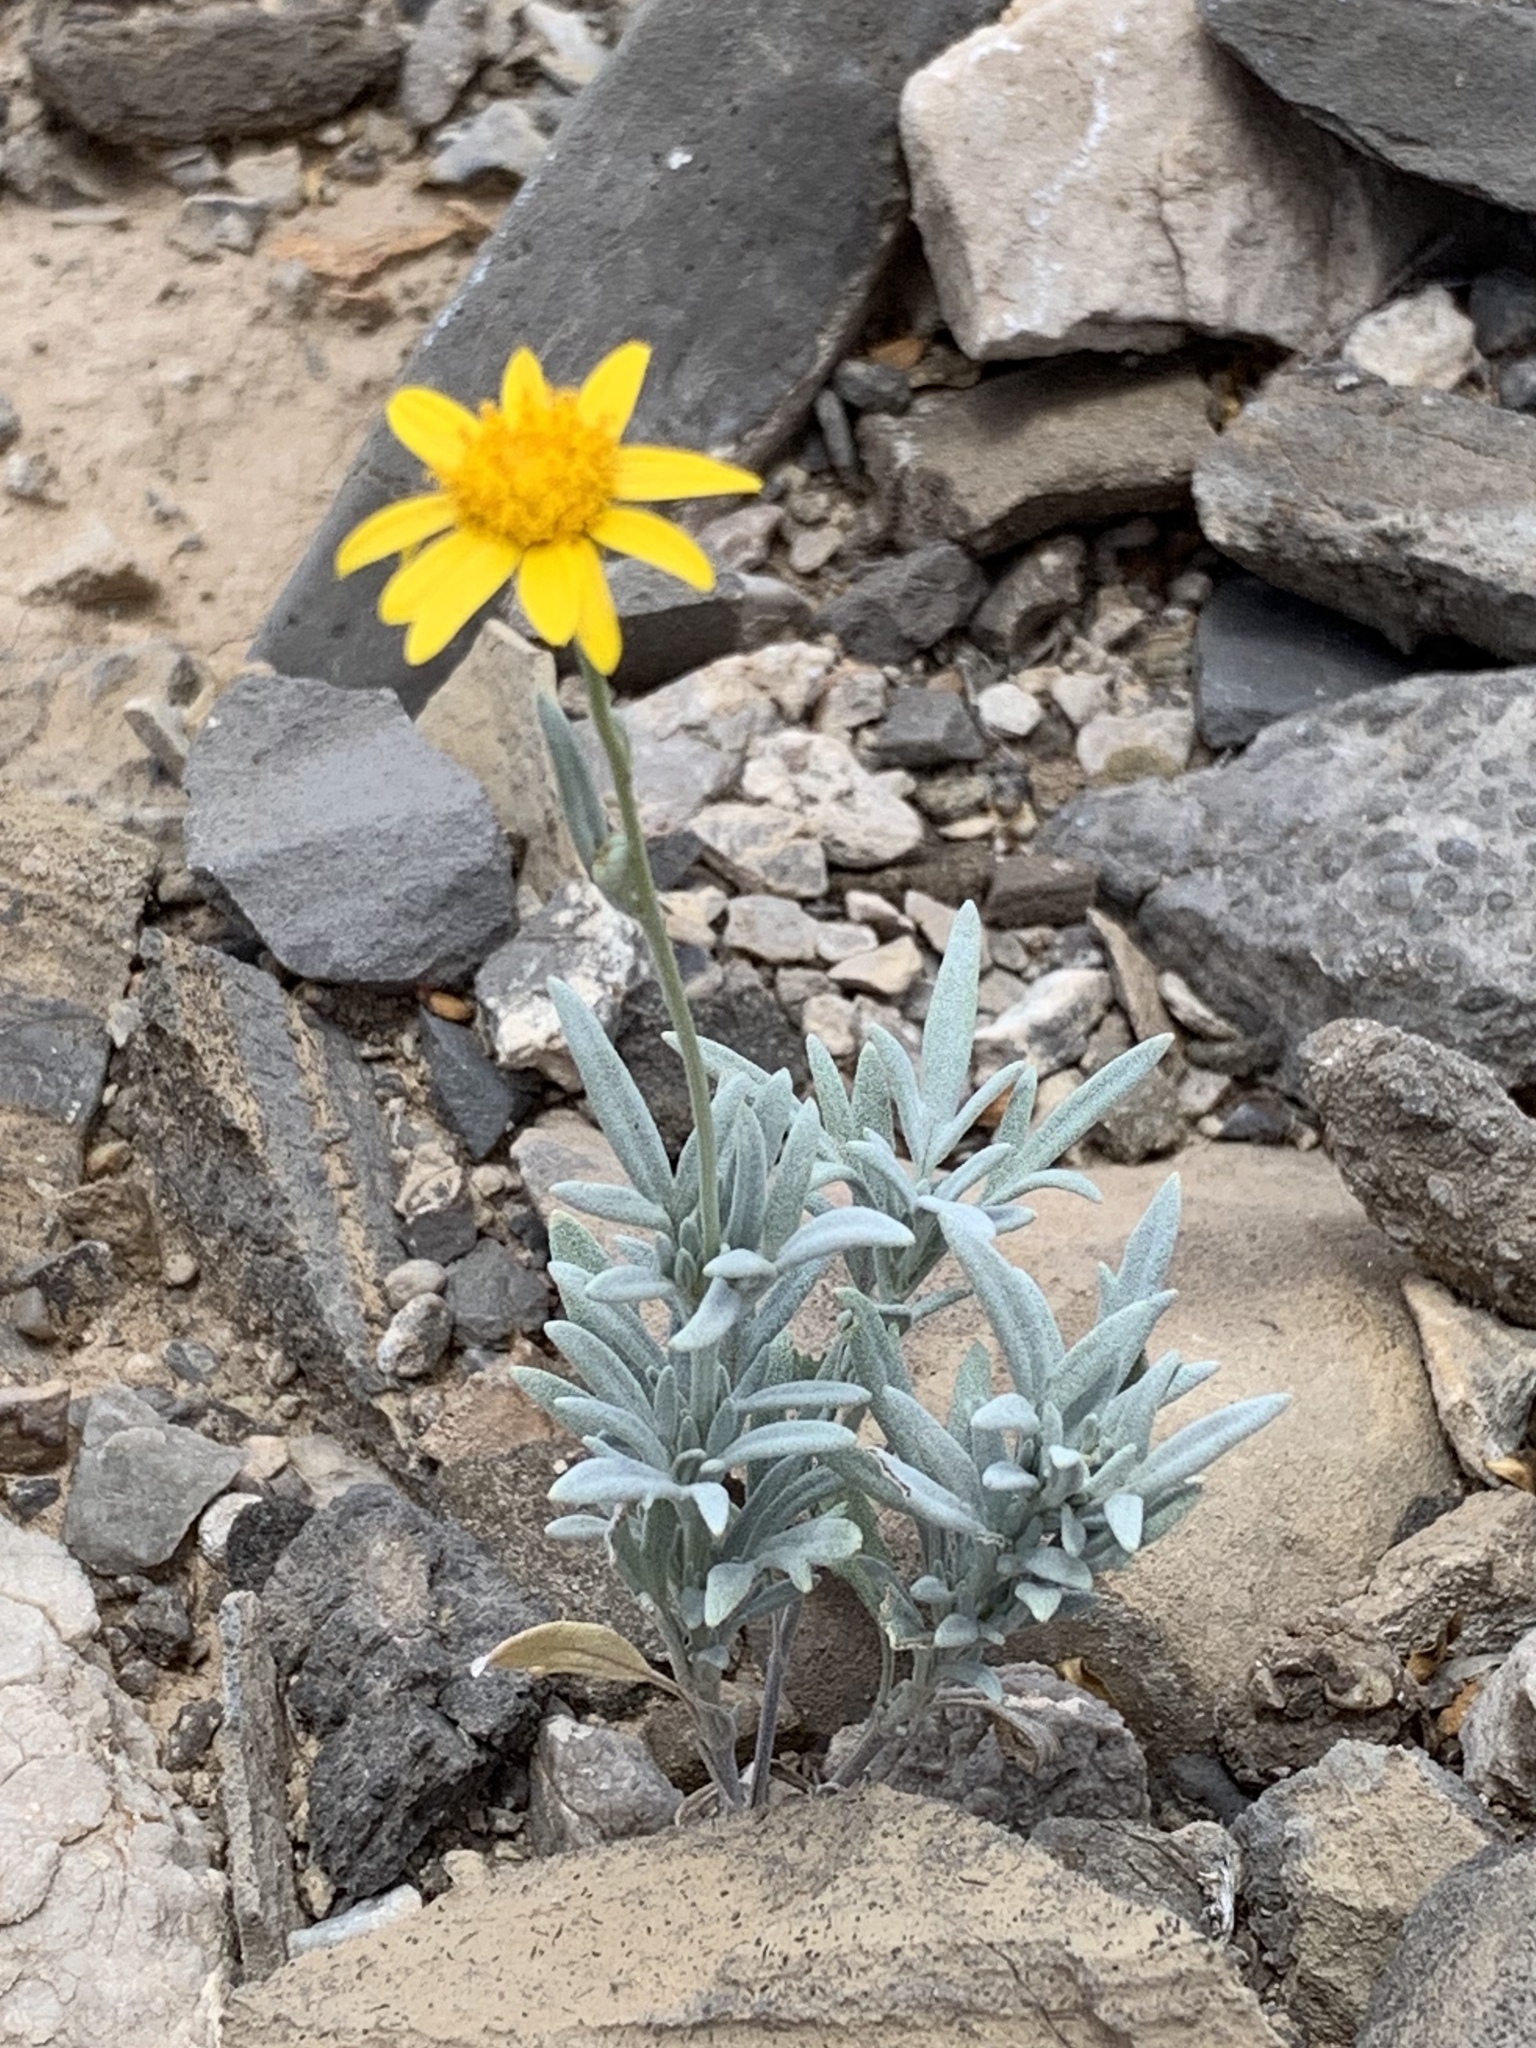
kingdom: Plantae
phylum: Tracheophyta
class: Magnoliopsida
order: Asterales
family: Asteraceae
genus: Picradeniopsis
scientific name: Picradeniopsis absinthifolia
